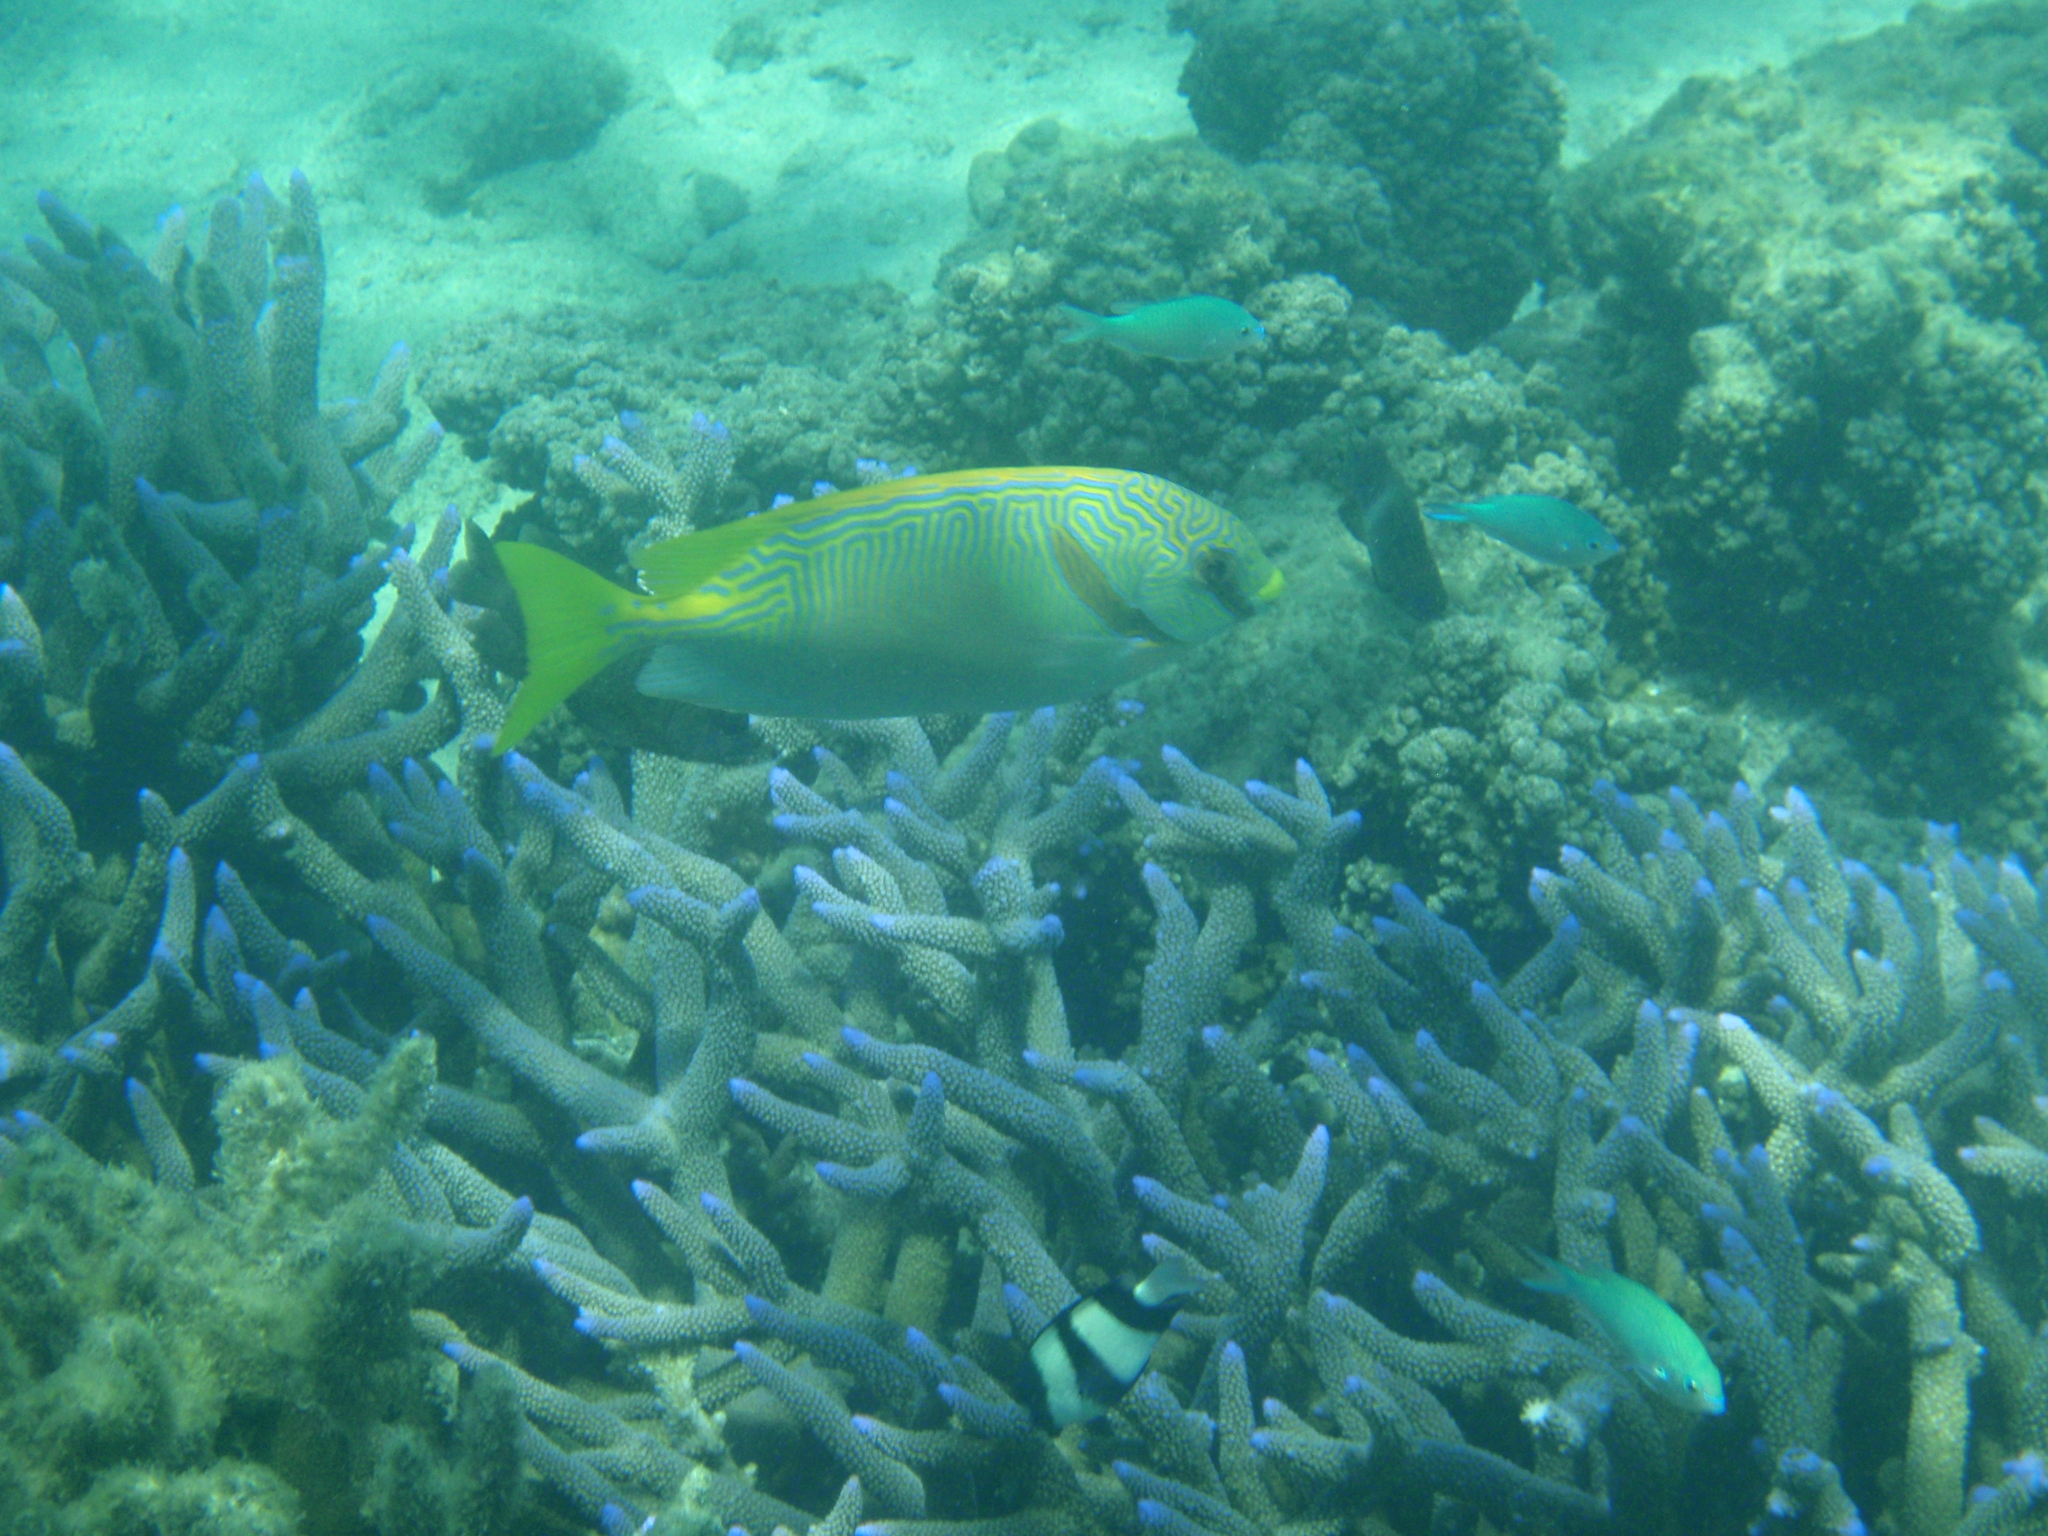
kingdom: Animalia
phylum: Chordata
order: Perciformes
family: Siganidae
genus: Siganus
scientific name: Siganus doliatus
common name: Barred spinefoot
